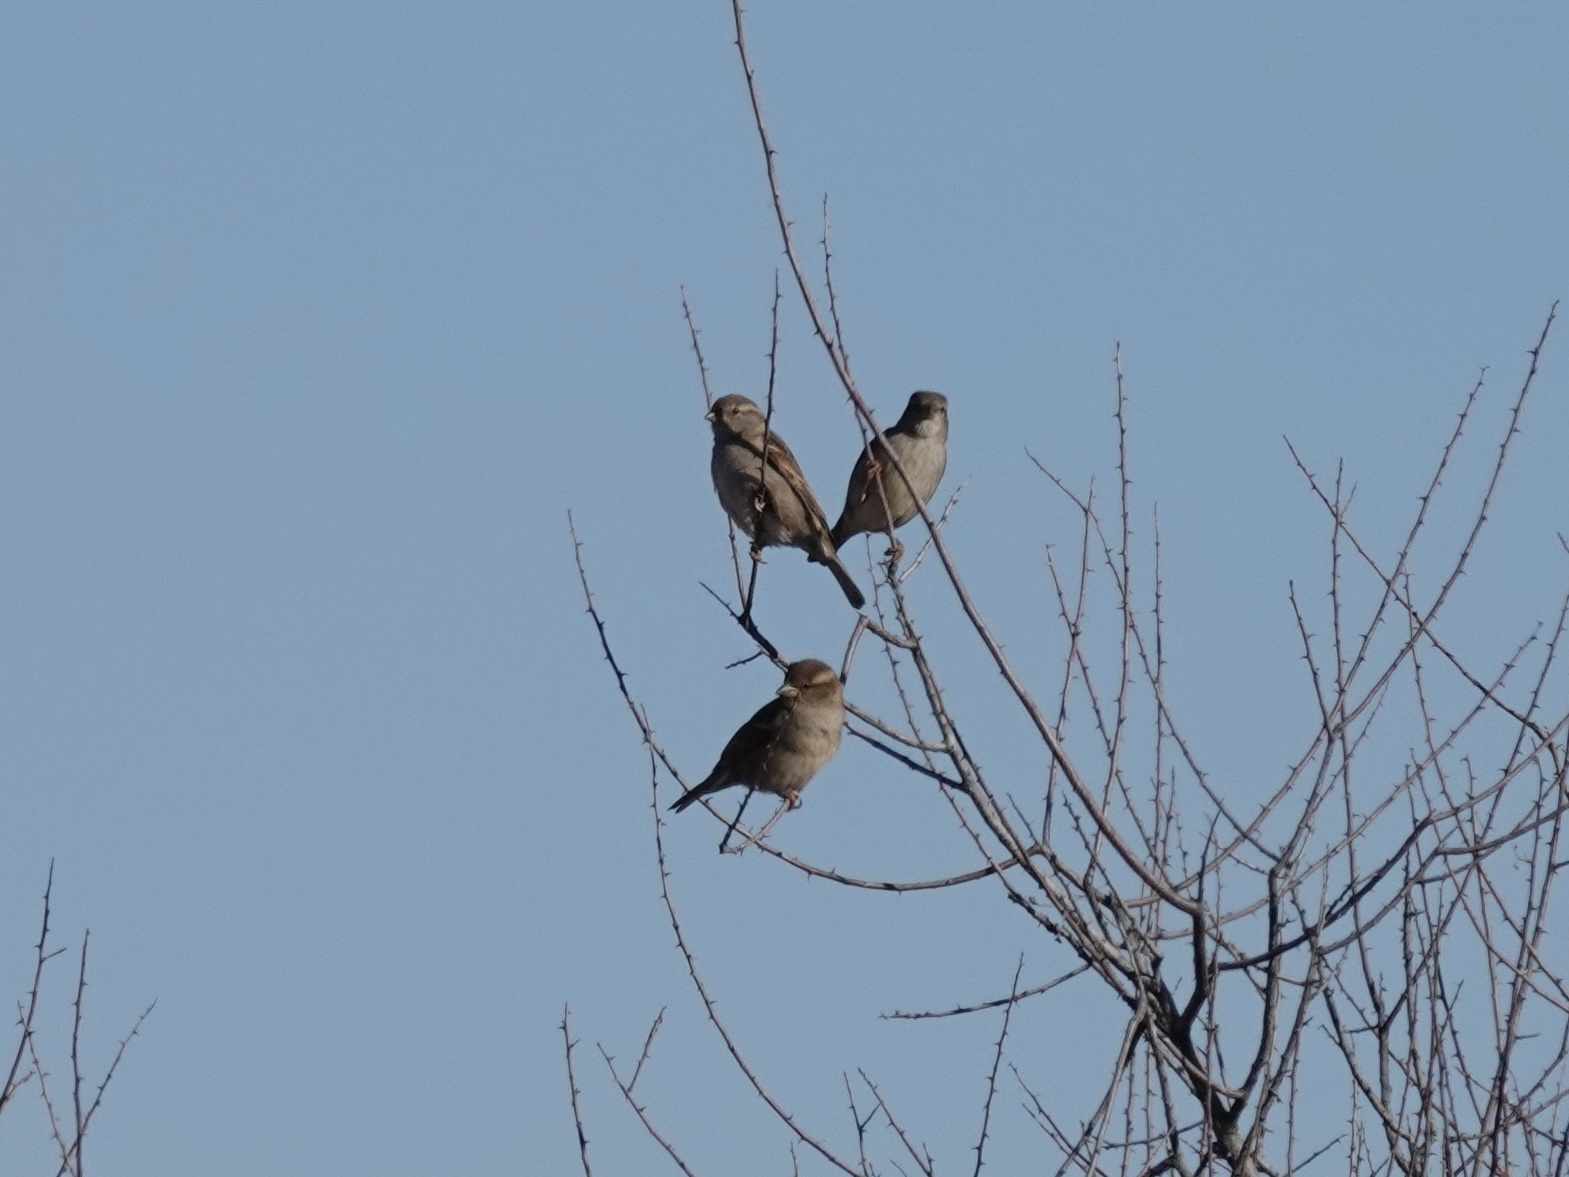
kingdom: Animalia
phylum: Chordata
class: Aves
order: Passeriformes
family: Passeridae
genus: Passer
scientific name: Passer domesticus
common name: House sparrow
